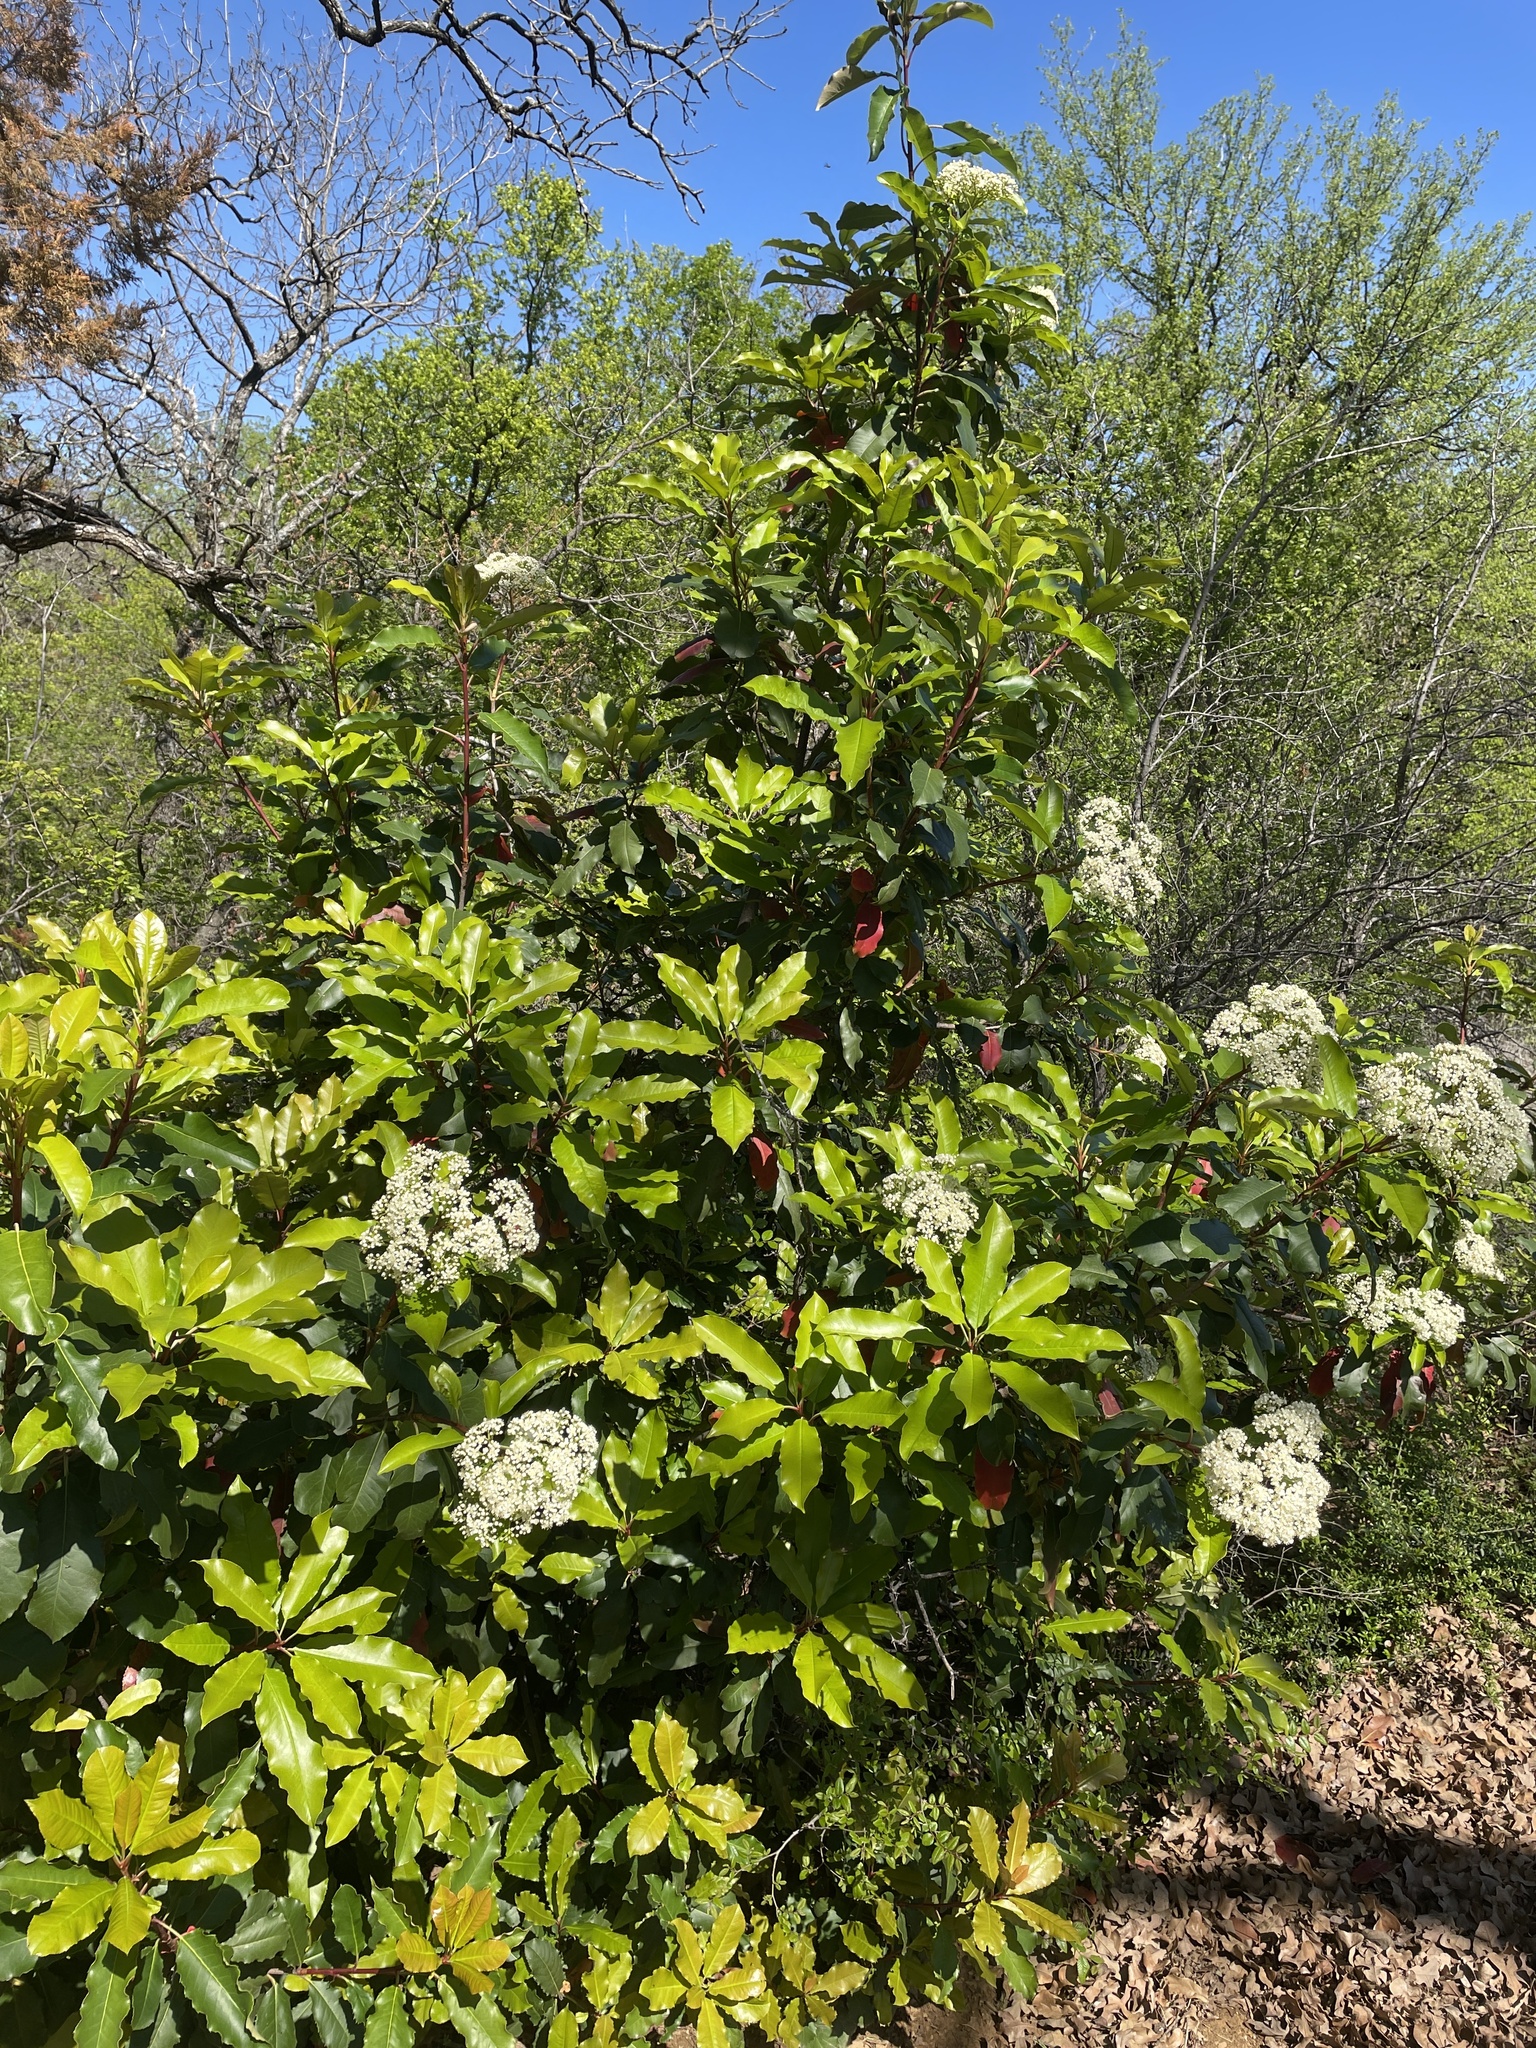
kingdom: Plantae
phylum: Tracheophyta
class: Magnoliopsida
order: Rosales
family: Rosaceae
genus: Photinia
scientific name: Photinia serratifolia
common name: Taiwanese photinia
